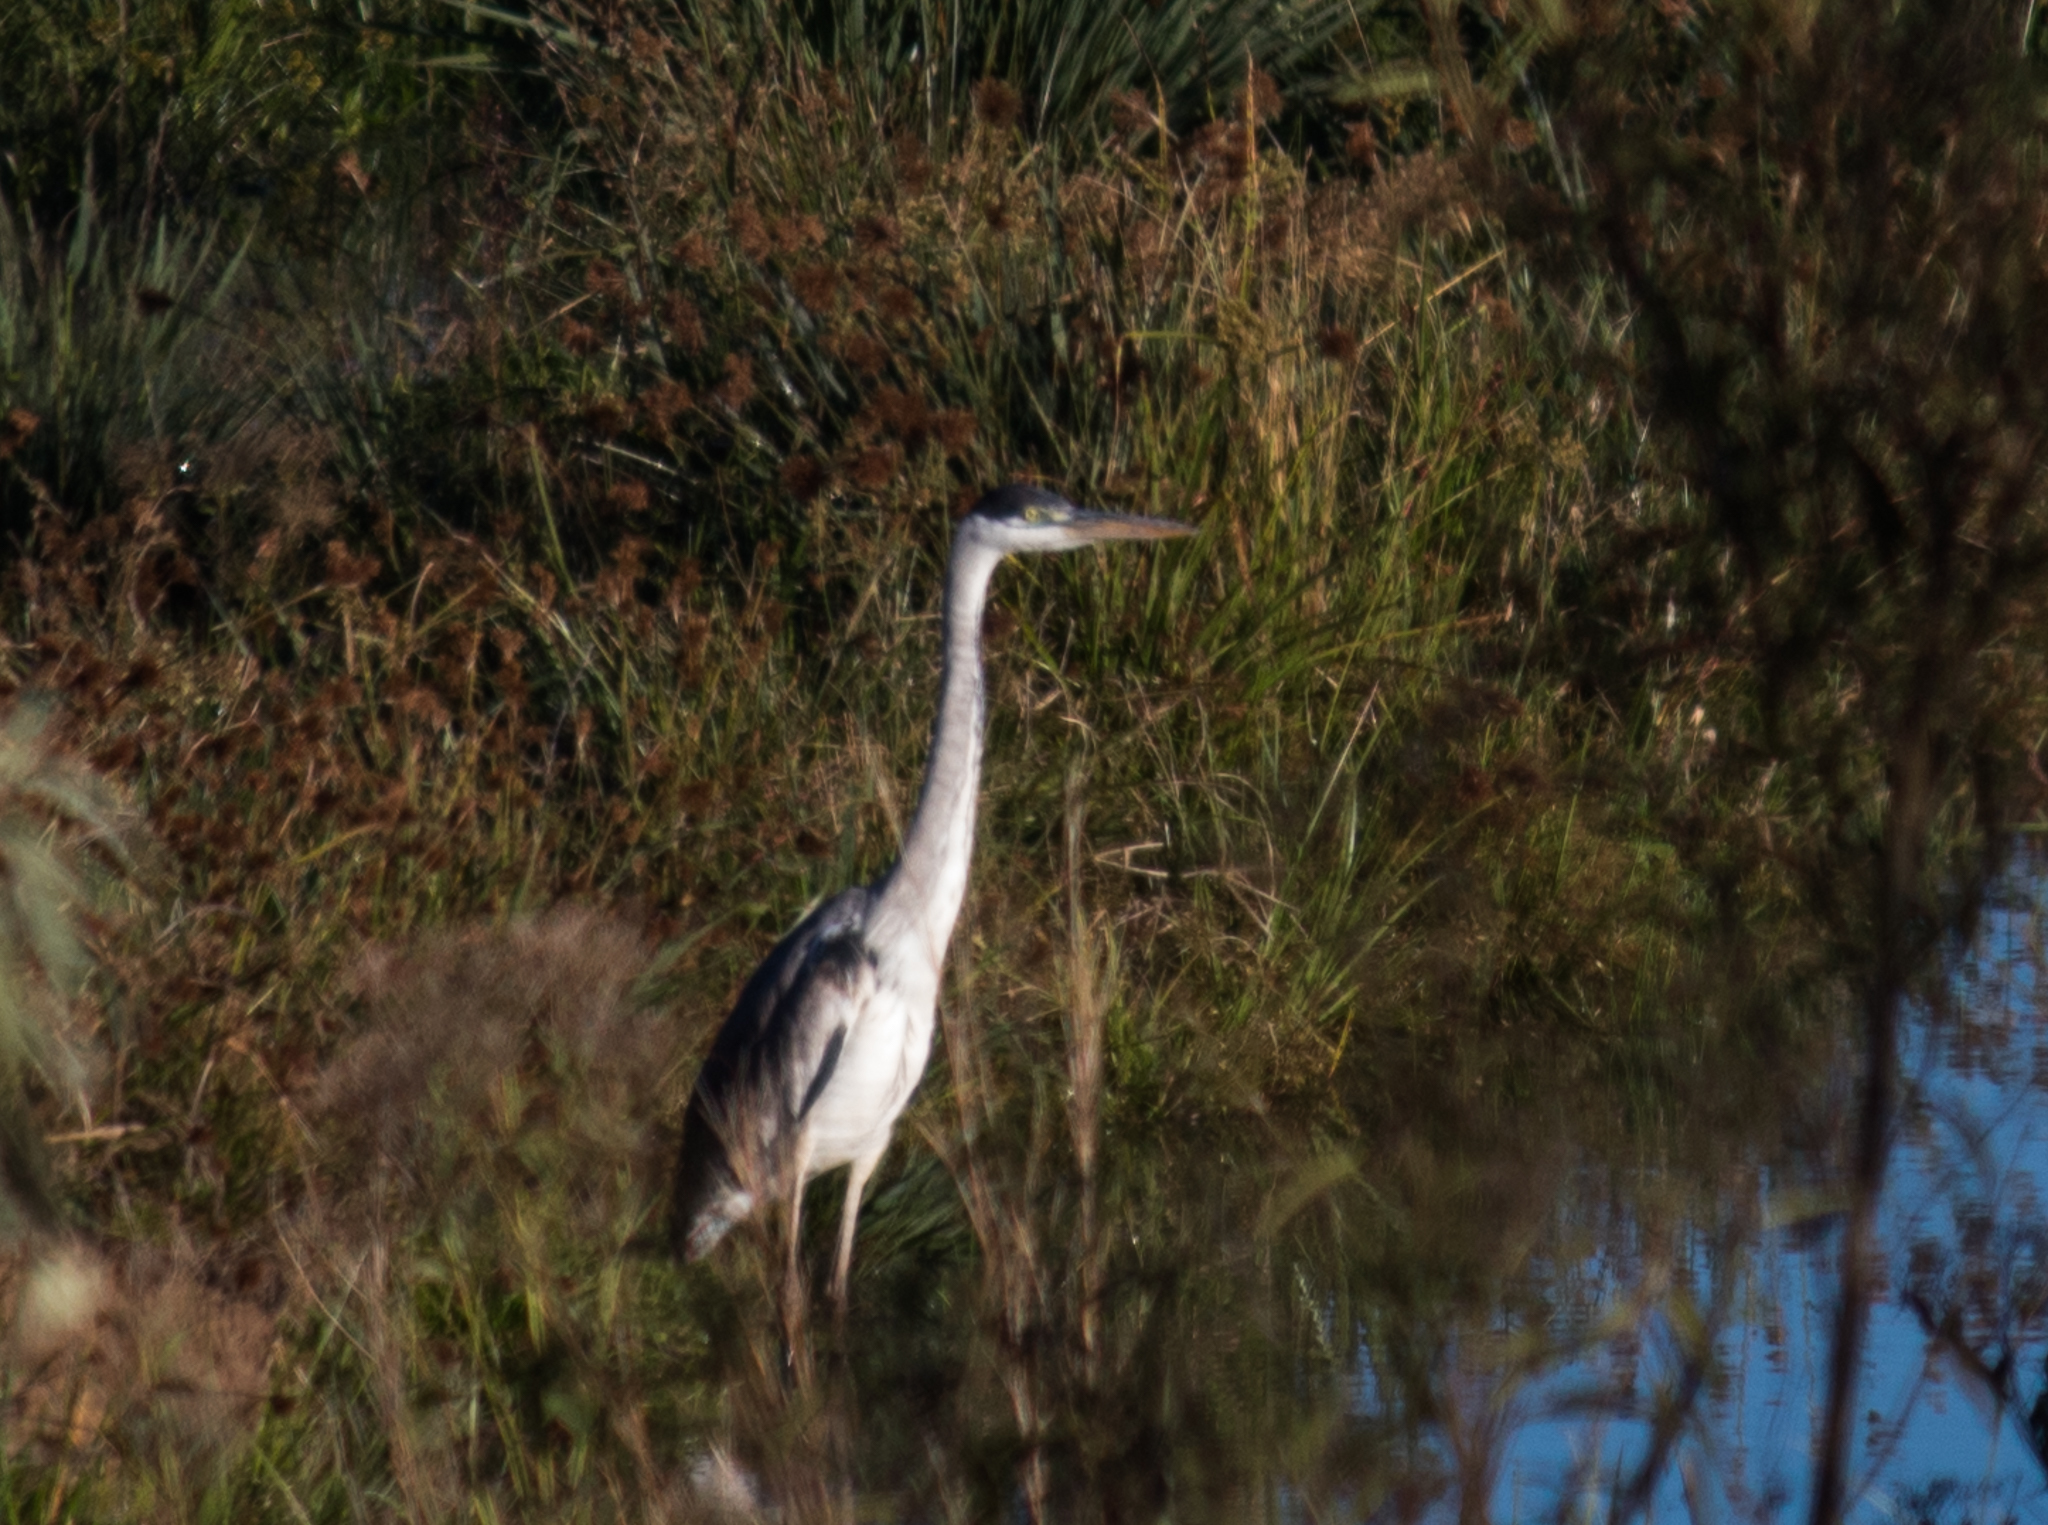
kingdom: Animalia
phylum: Chordata
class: Aves
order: Pelecaniformes
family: Ardeidae
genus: Ardea
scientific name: Ardea cocoi
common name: Cocoi heron
